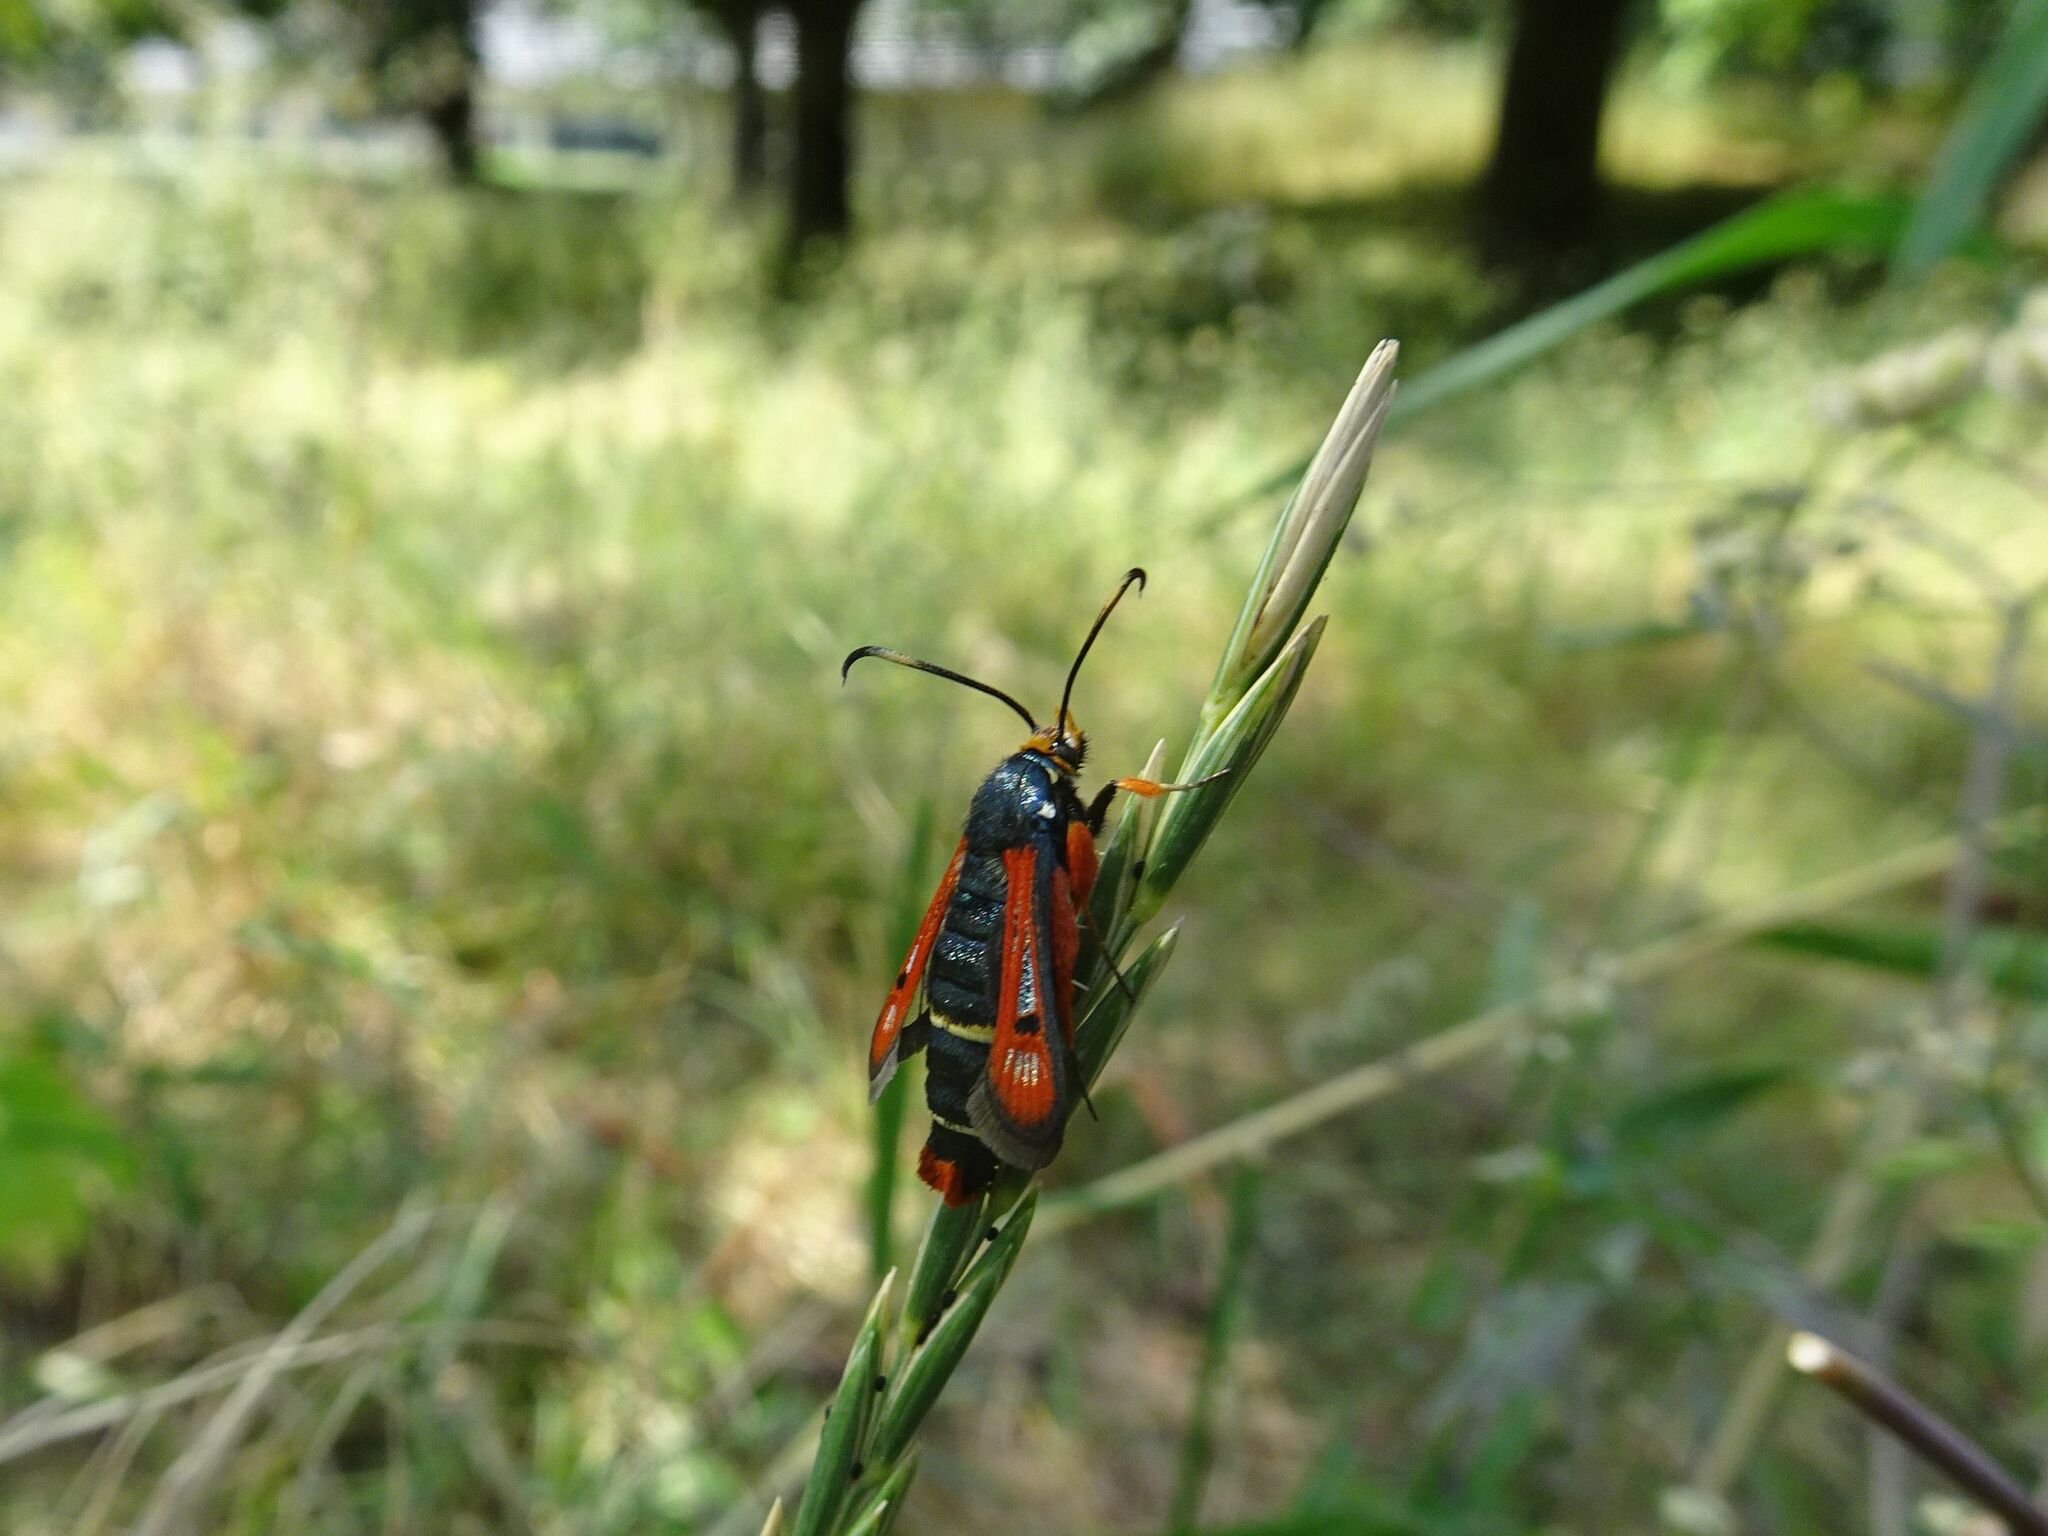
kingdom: Animalia
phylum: Arthropoda
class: Insecta
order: Lepidoptera
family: Sesiidae
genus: Pyropteron
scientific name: Pyropteron chrysidiforme
